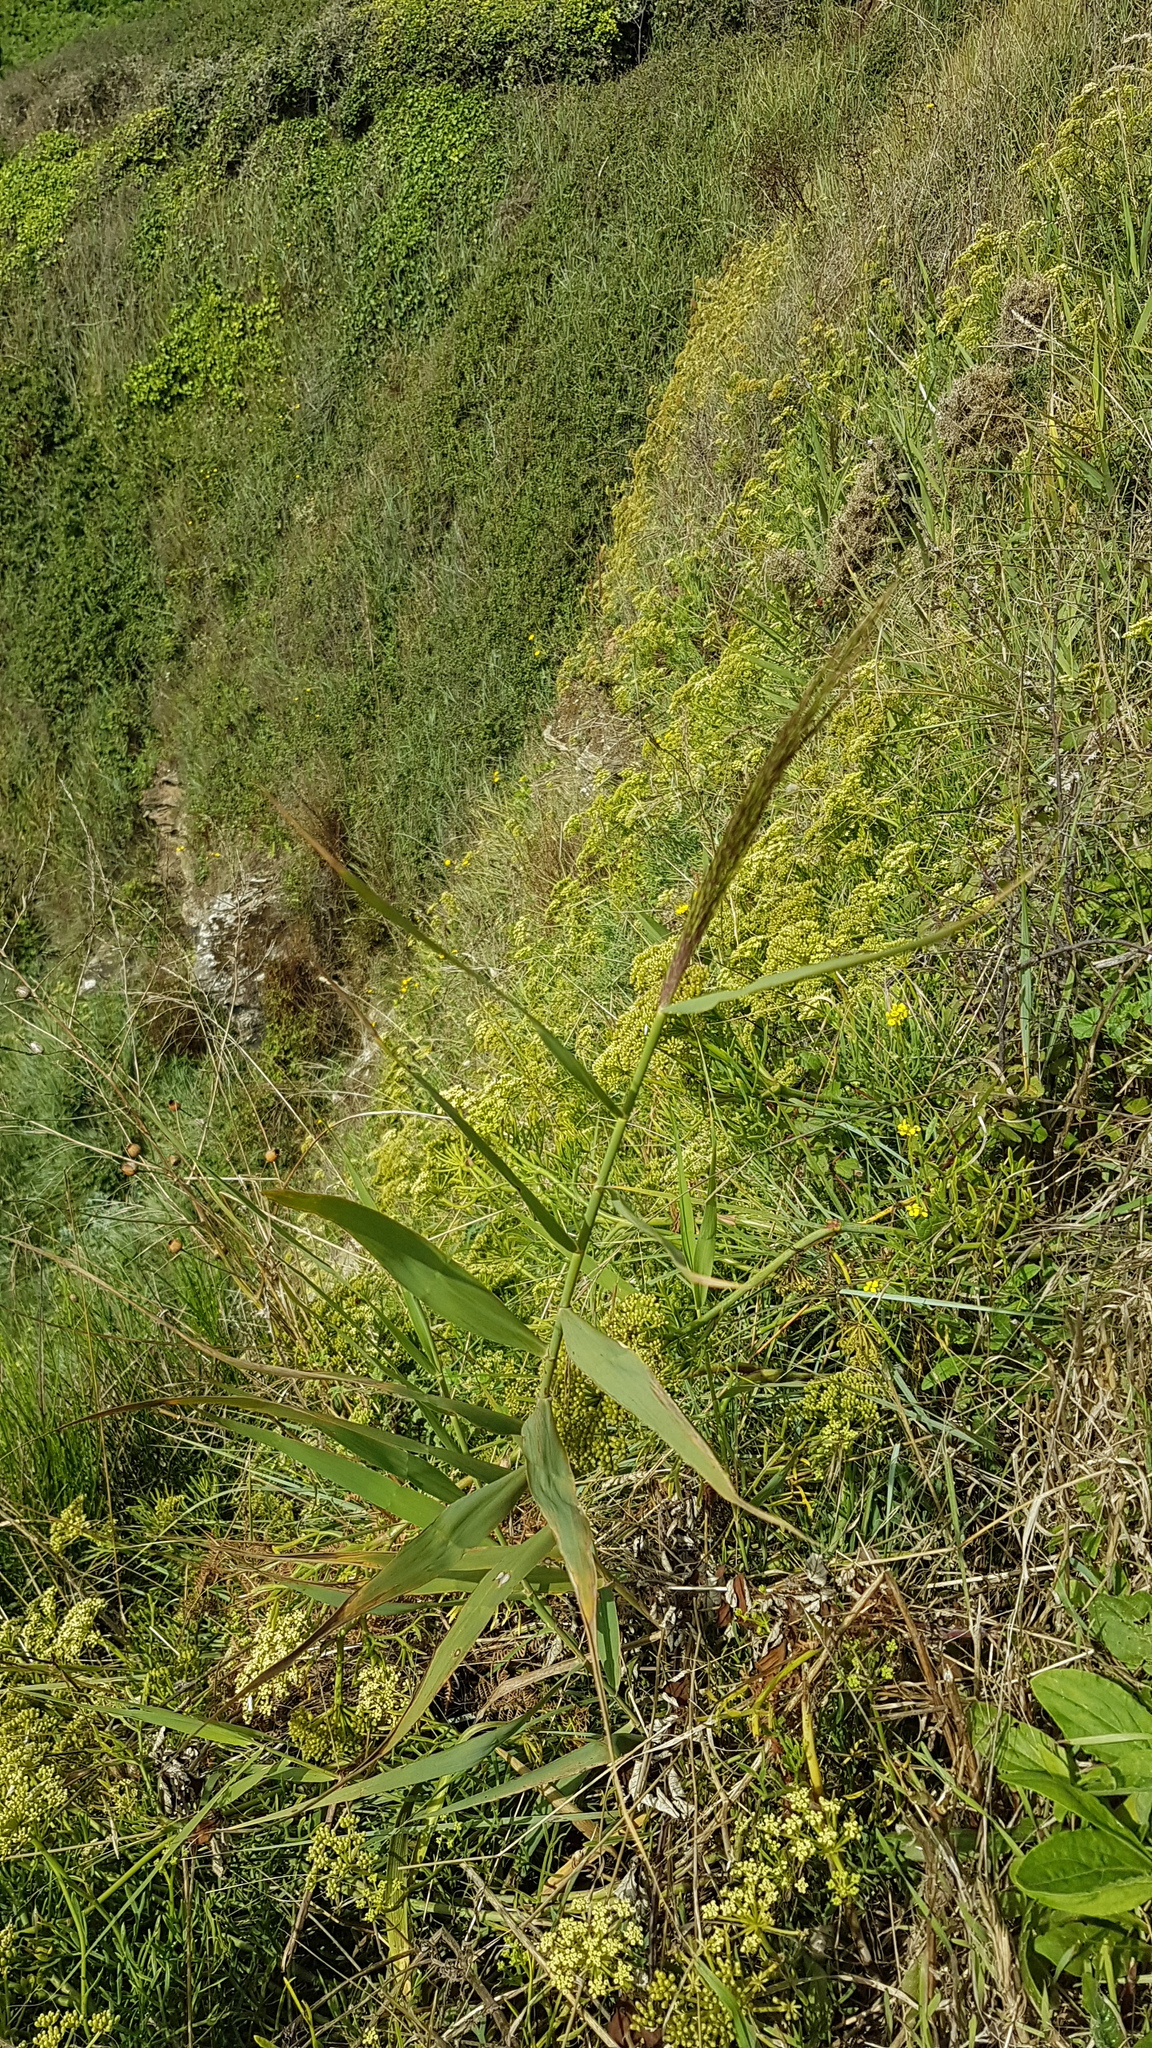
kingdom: Plantae
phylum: Tracheophyta
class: Liliopsida
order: Poales
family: Poaceae
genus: Phragmites
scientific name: Phragmites australis
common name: Common reed
